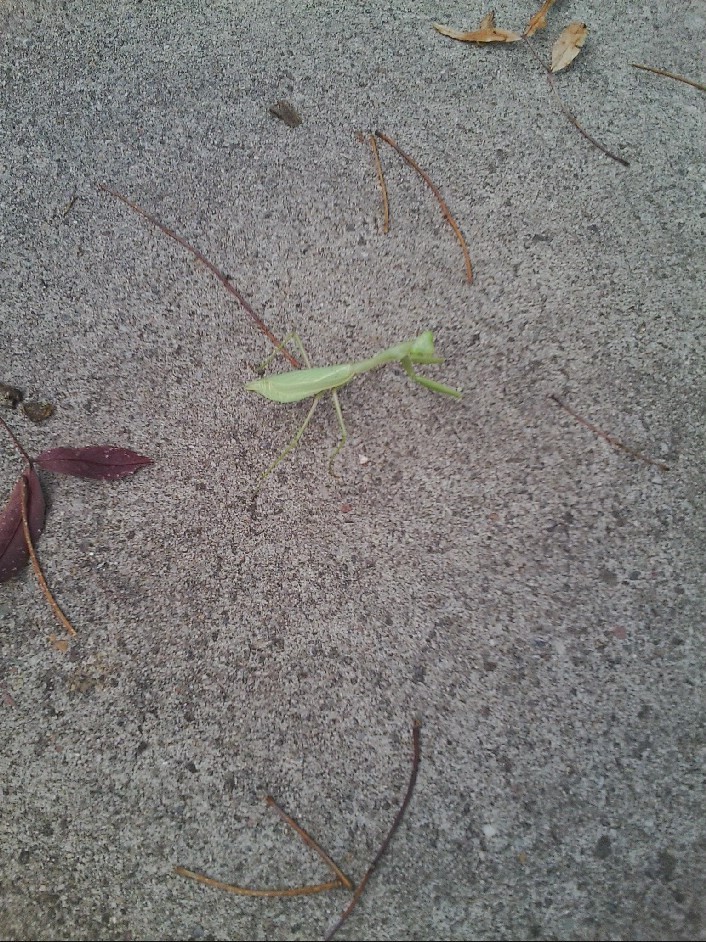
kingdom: Animalia
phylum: Arthropoda
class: Insecta
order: Mantodea
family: Mantidae
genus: Stagmomantis
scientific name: Stagmomantis limbata
